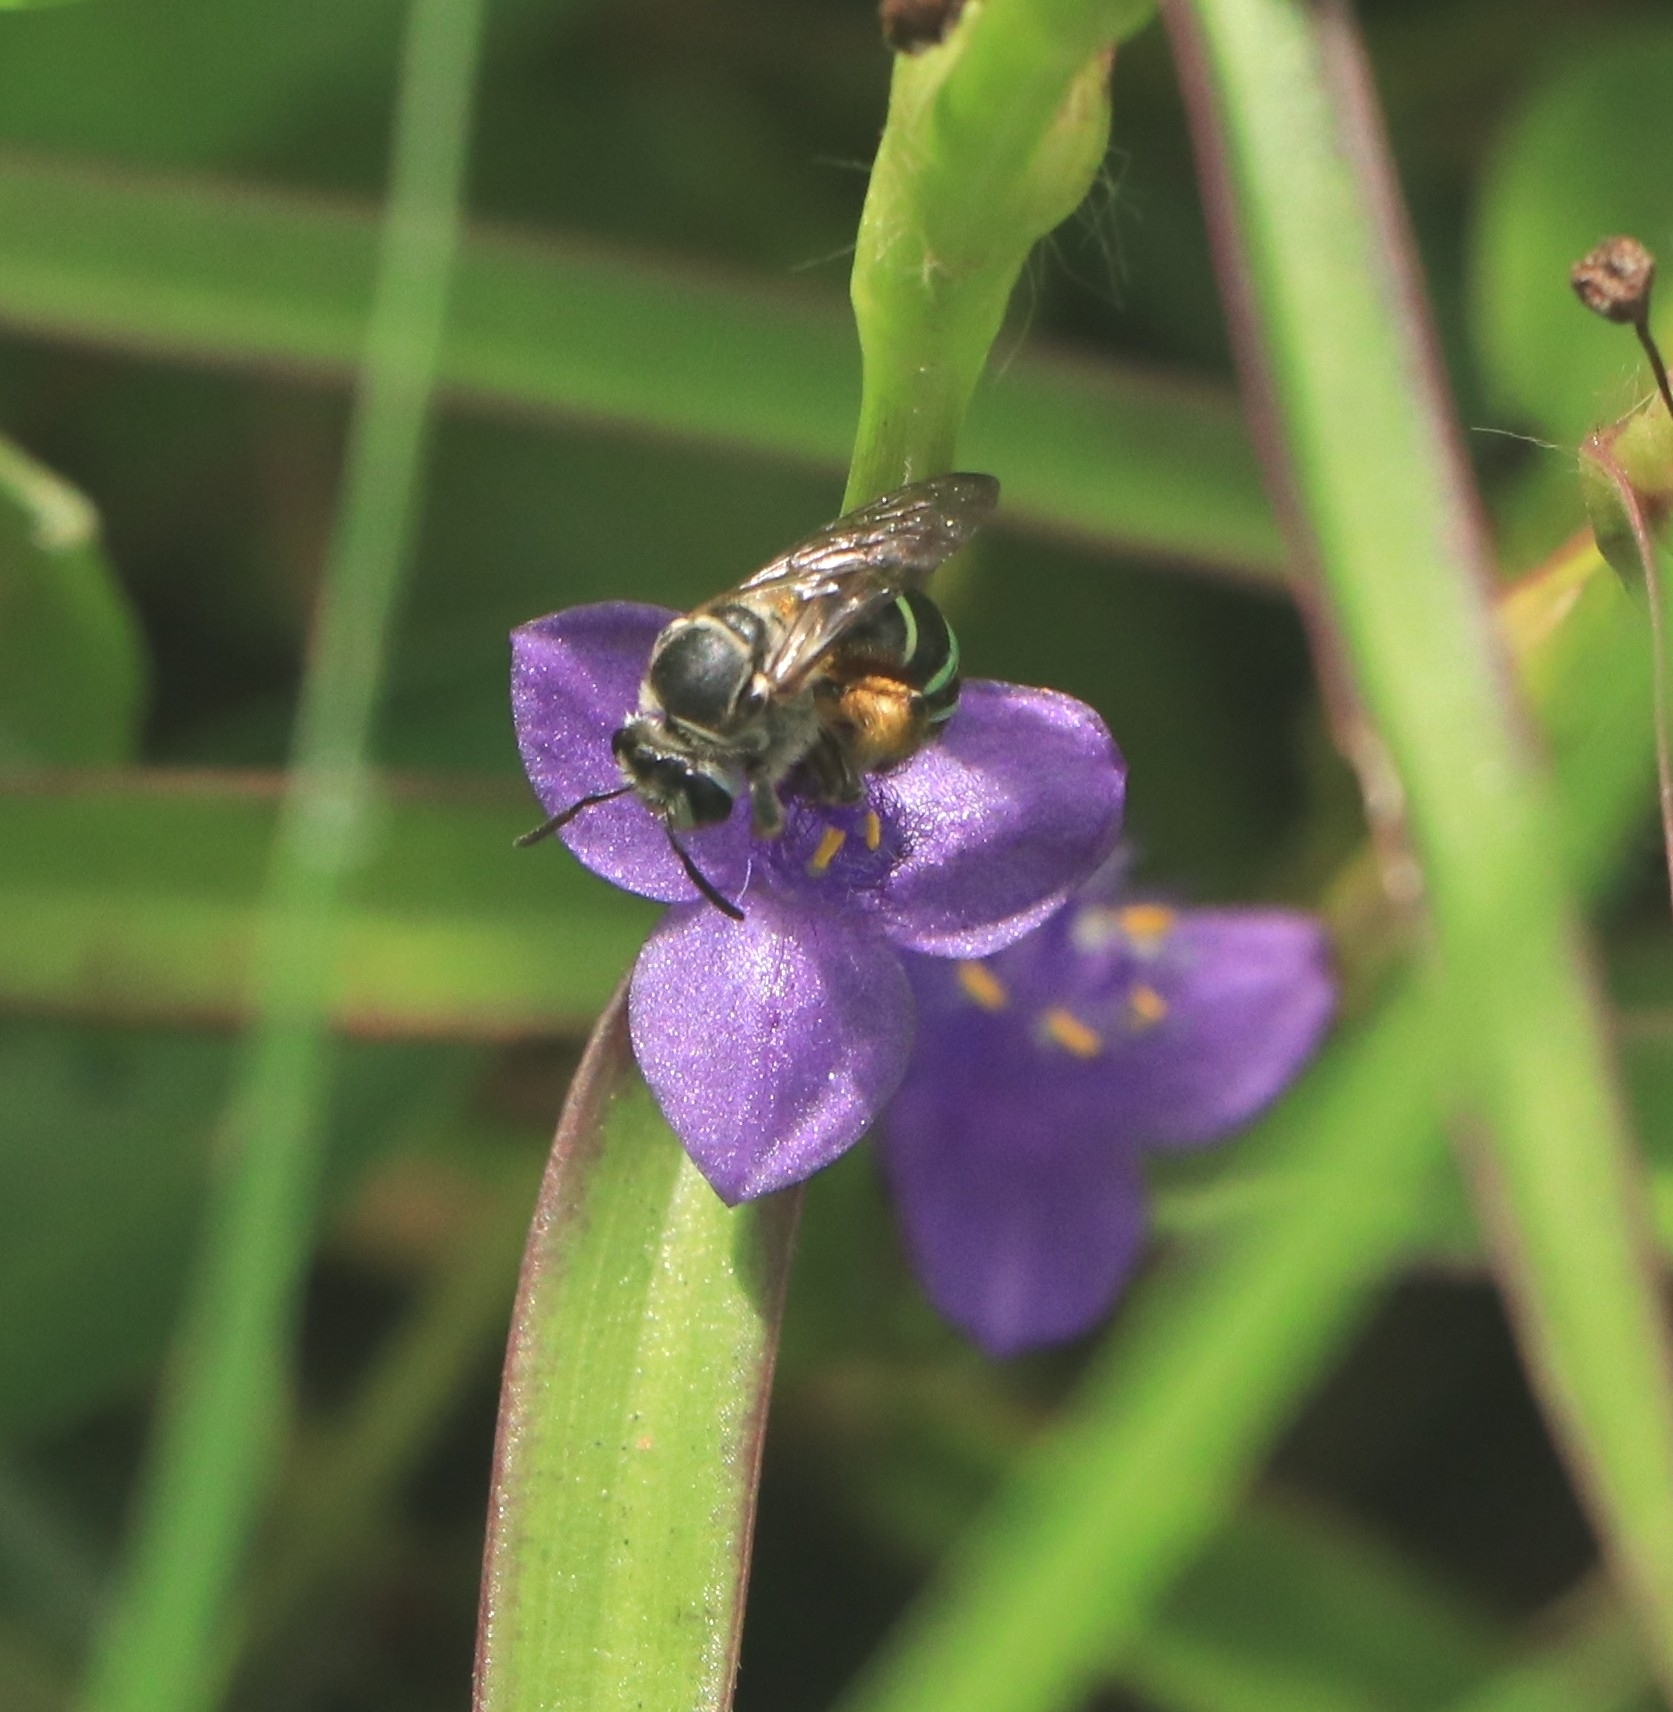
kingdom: Animalia
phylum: Arthropoda
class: Insecta
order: Hymenoptera
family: Halictidae
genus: Nomia
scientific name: Nomia westwoodi
